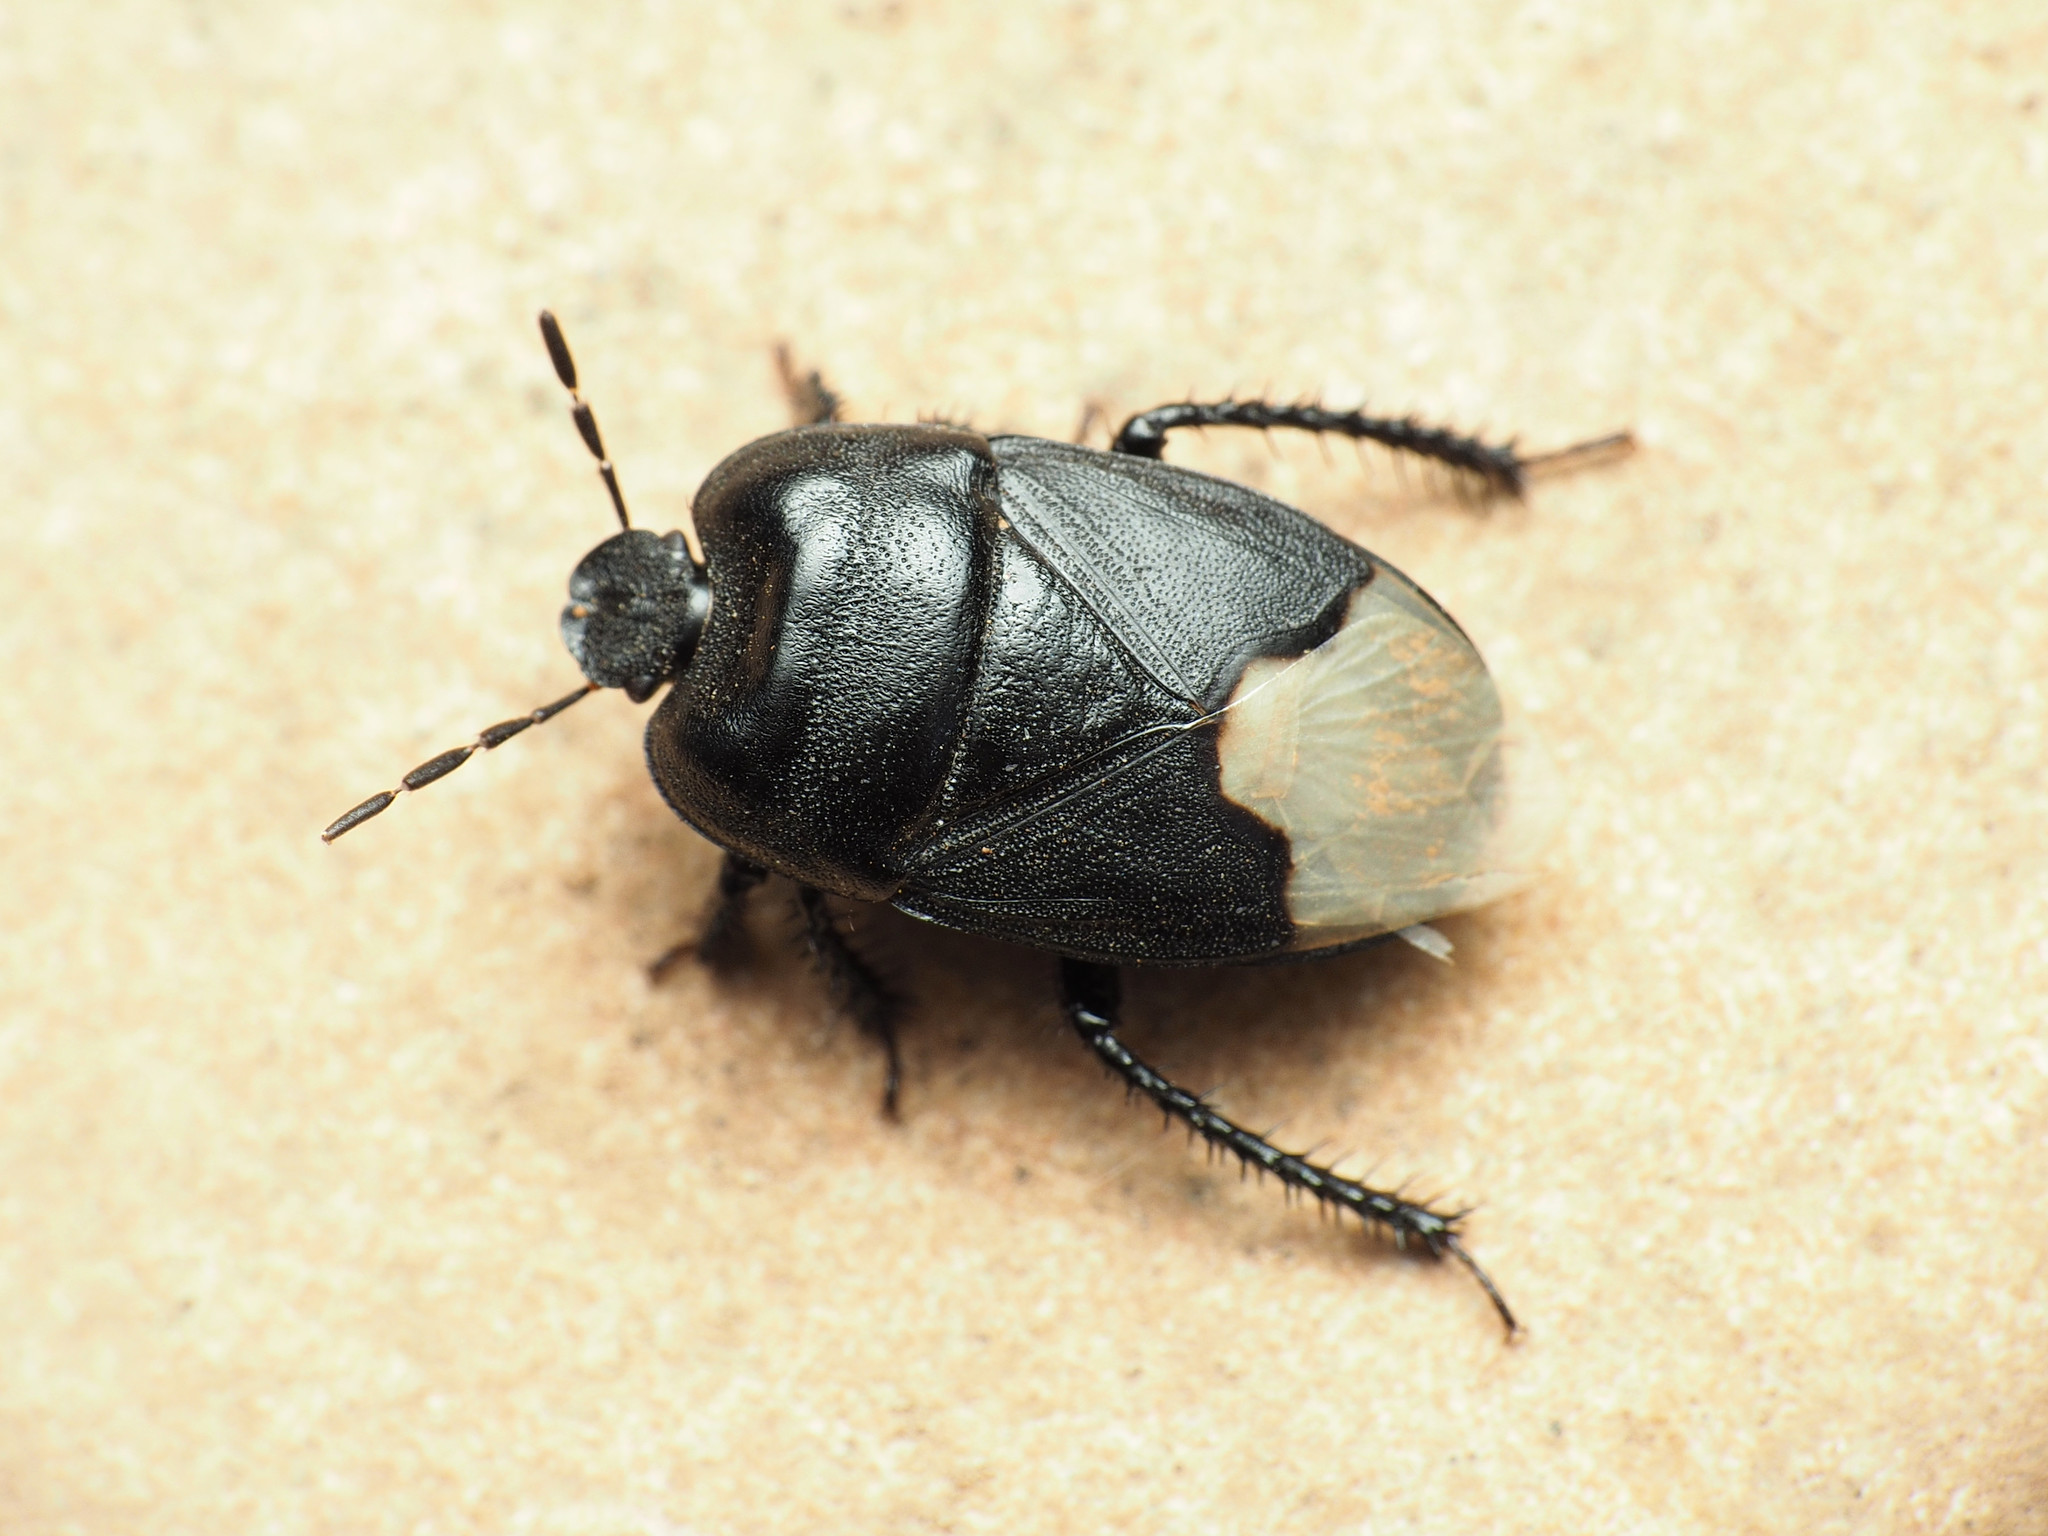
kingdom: Animalia
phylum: Arthropoda
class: Insecta
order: Hemiptera
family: Cydnidae
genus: Cydnus
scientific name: Cydnus aterrimus
